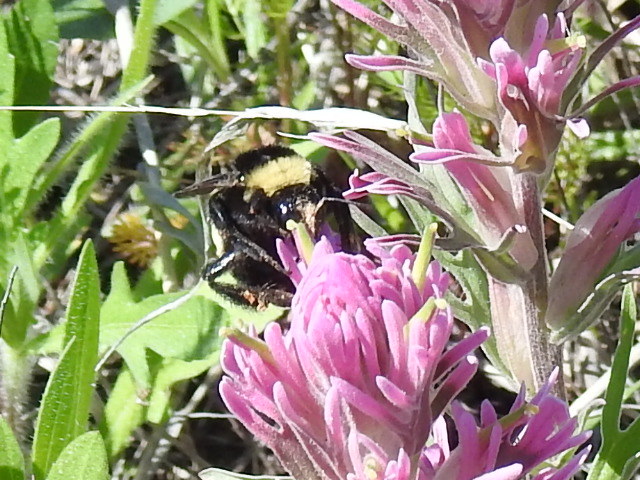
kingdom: Animalia
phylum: Arthropoda
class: Insecta
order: Hymenoptera
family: Apidae
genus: Bombus
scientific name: Bombus pensylvanicus
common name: Bumble bee
